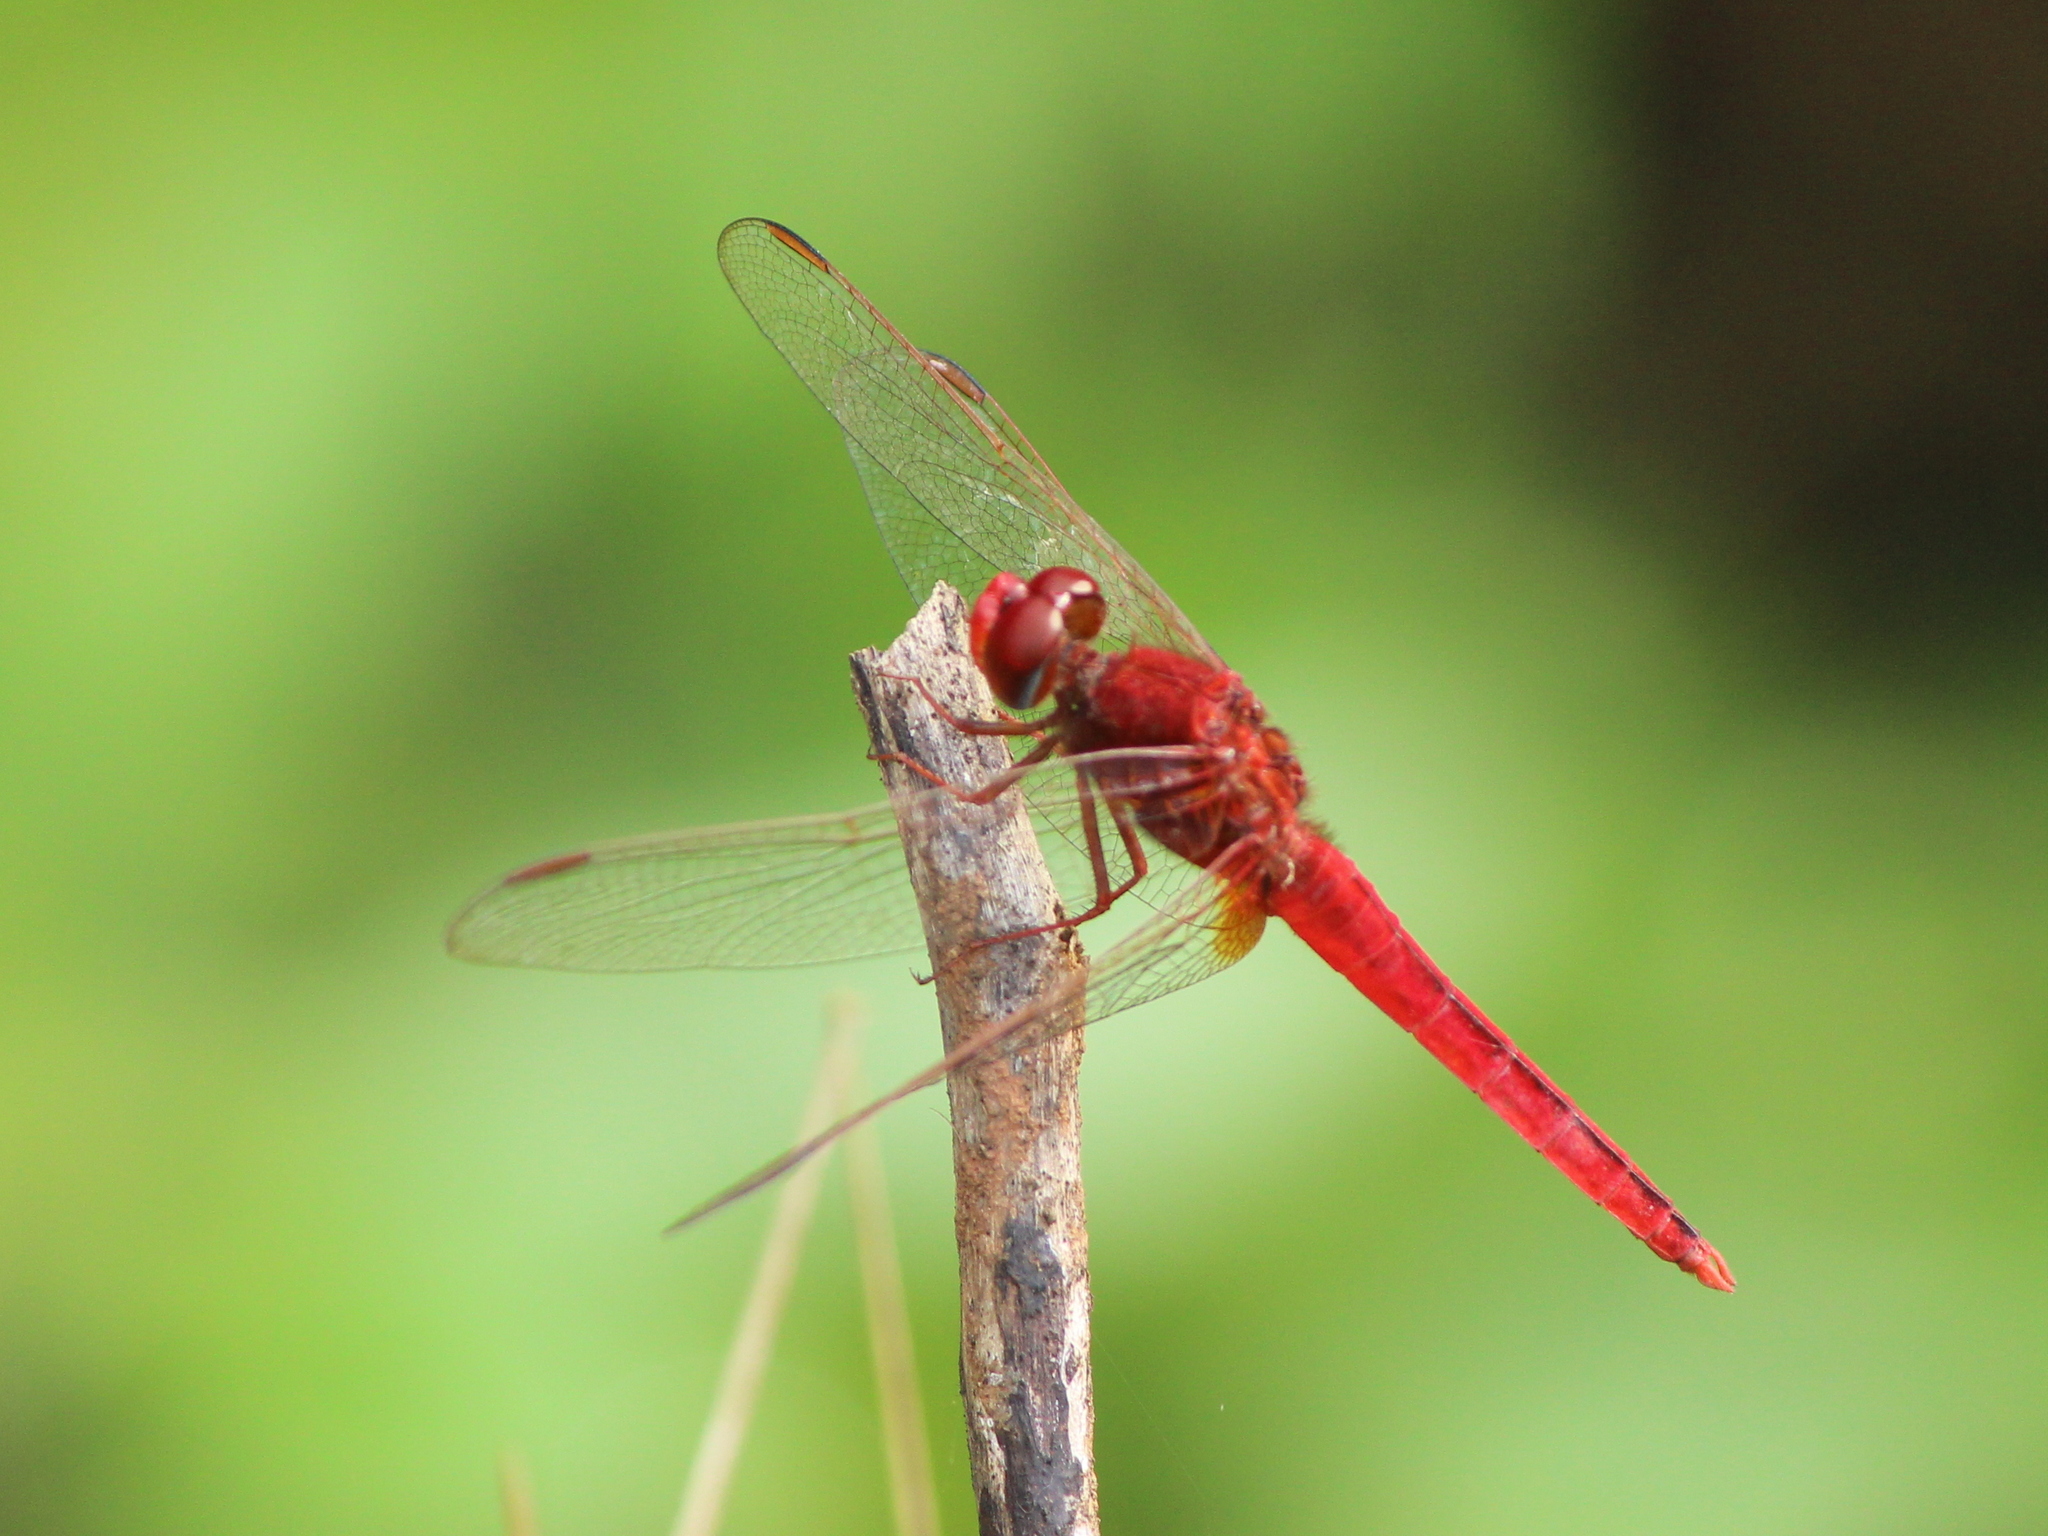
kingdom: Animalia
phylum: Arthropoda
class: Insecta
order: Odonata
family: Libellulidae
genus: Crocothemis
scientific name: Crocothemis servilia
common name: Scarlet skimmer
